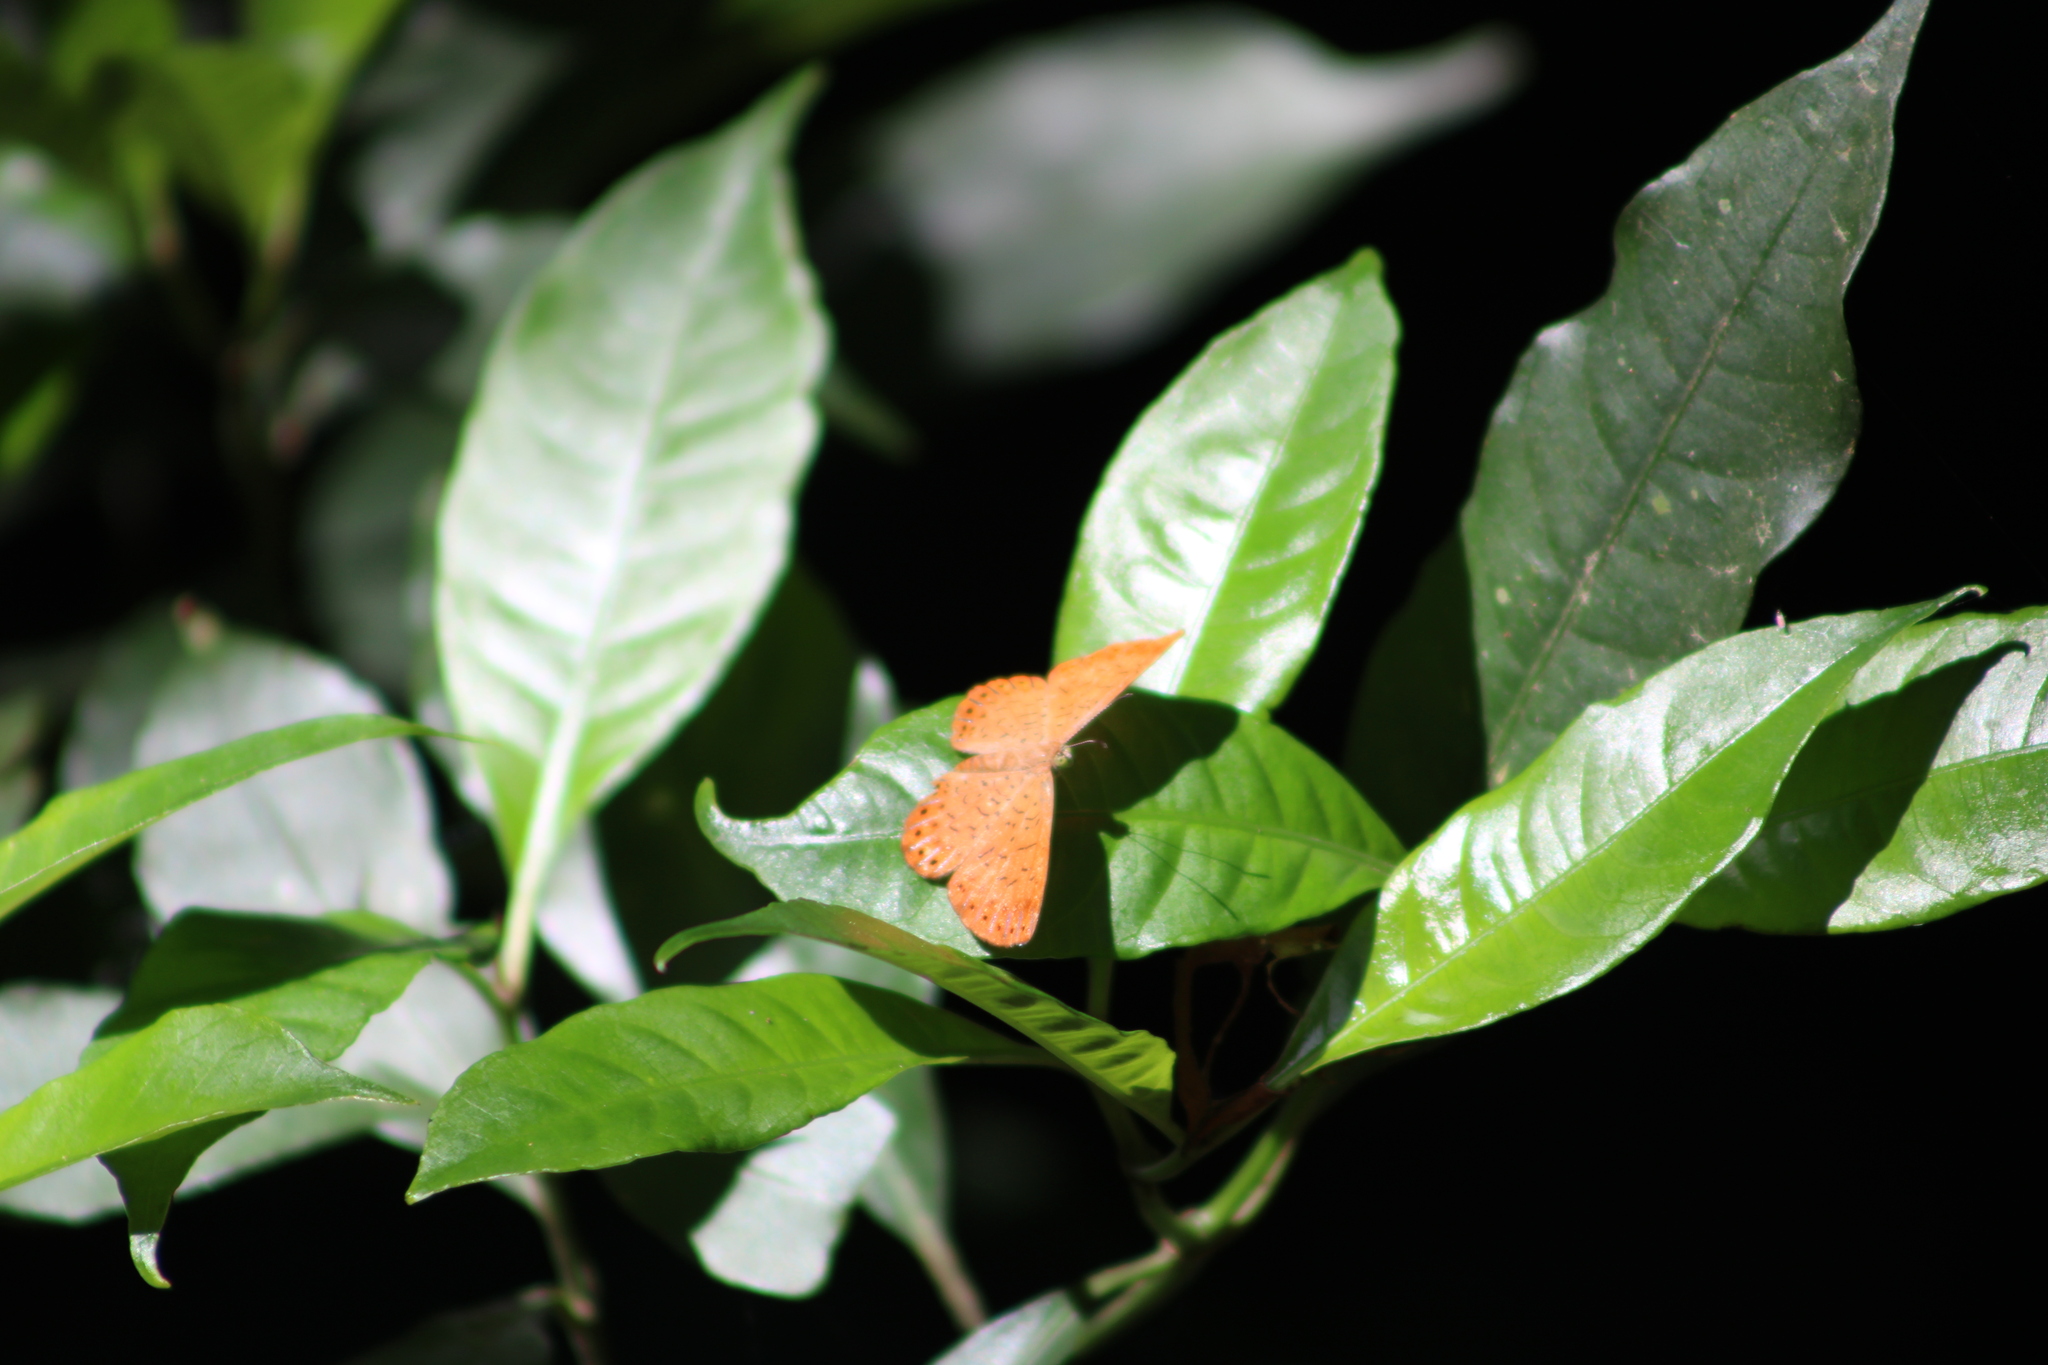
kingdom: Animalia
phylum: Arthropoda
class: Insecta
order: Lepidoptera
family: Riodinidae
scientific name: Riodinidae
